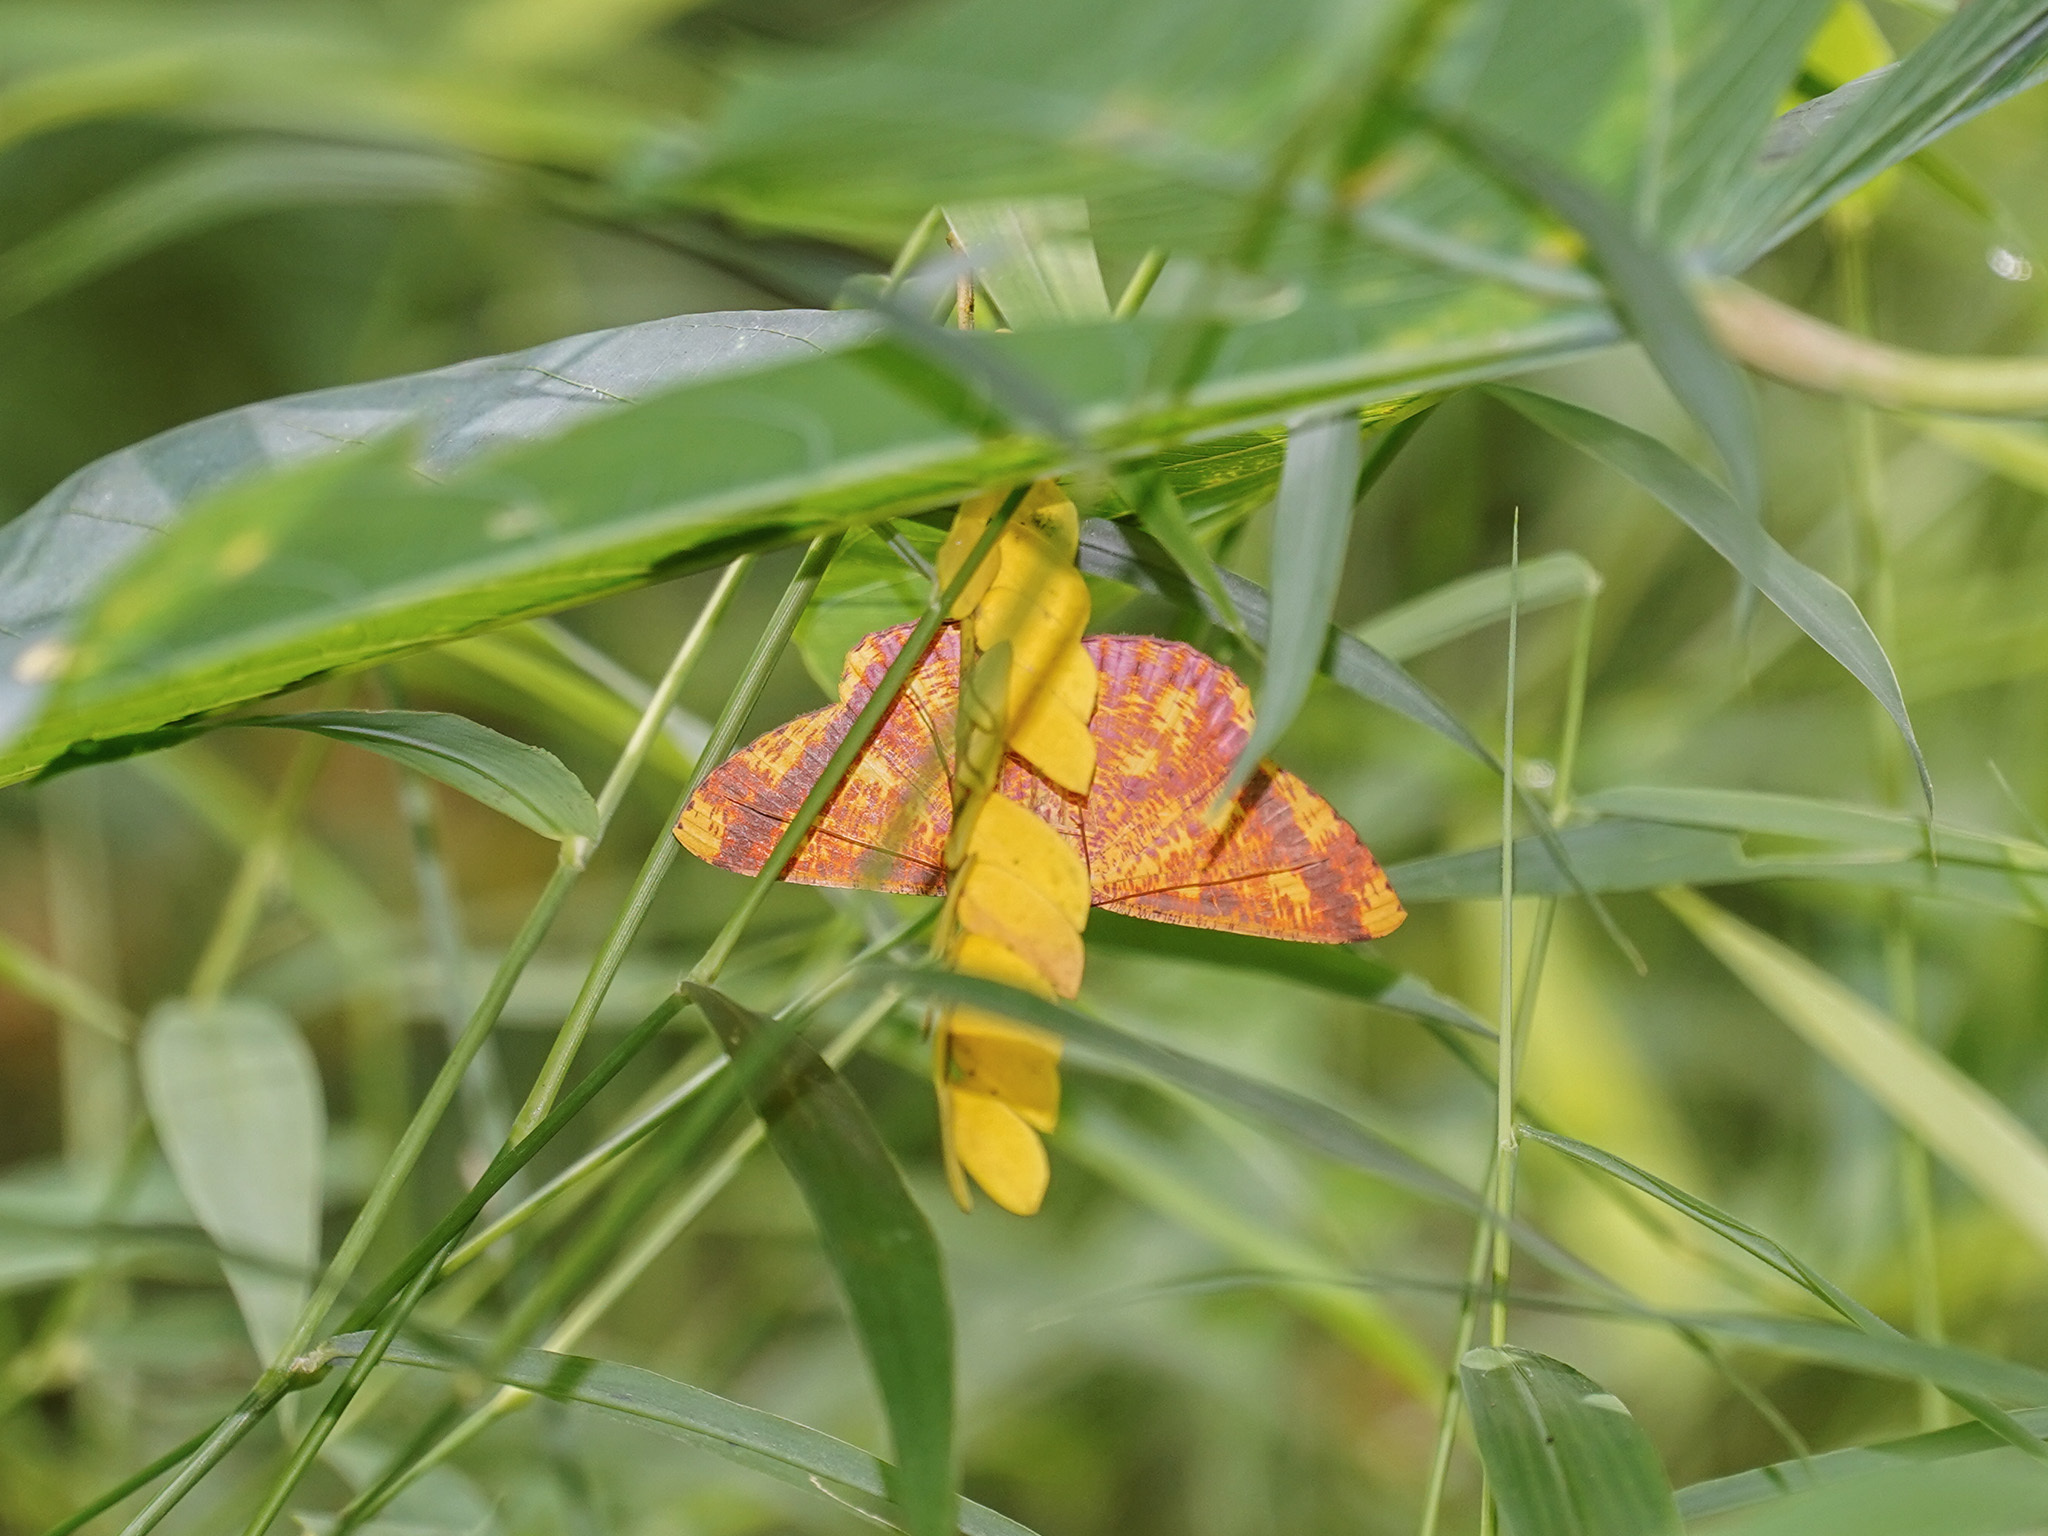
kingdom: Animalia
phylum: Arthropoda
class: Insecta
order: Lepidoptera
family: Geometridae
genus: Eumelea
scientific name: Eumelea ludovicata
